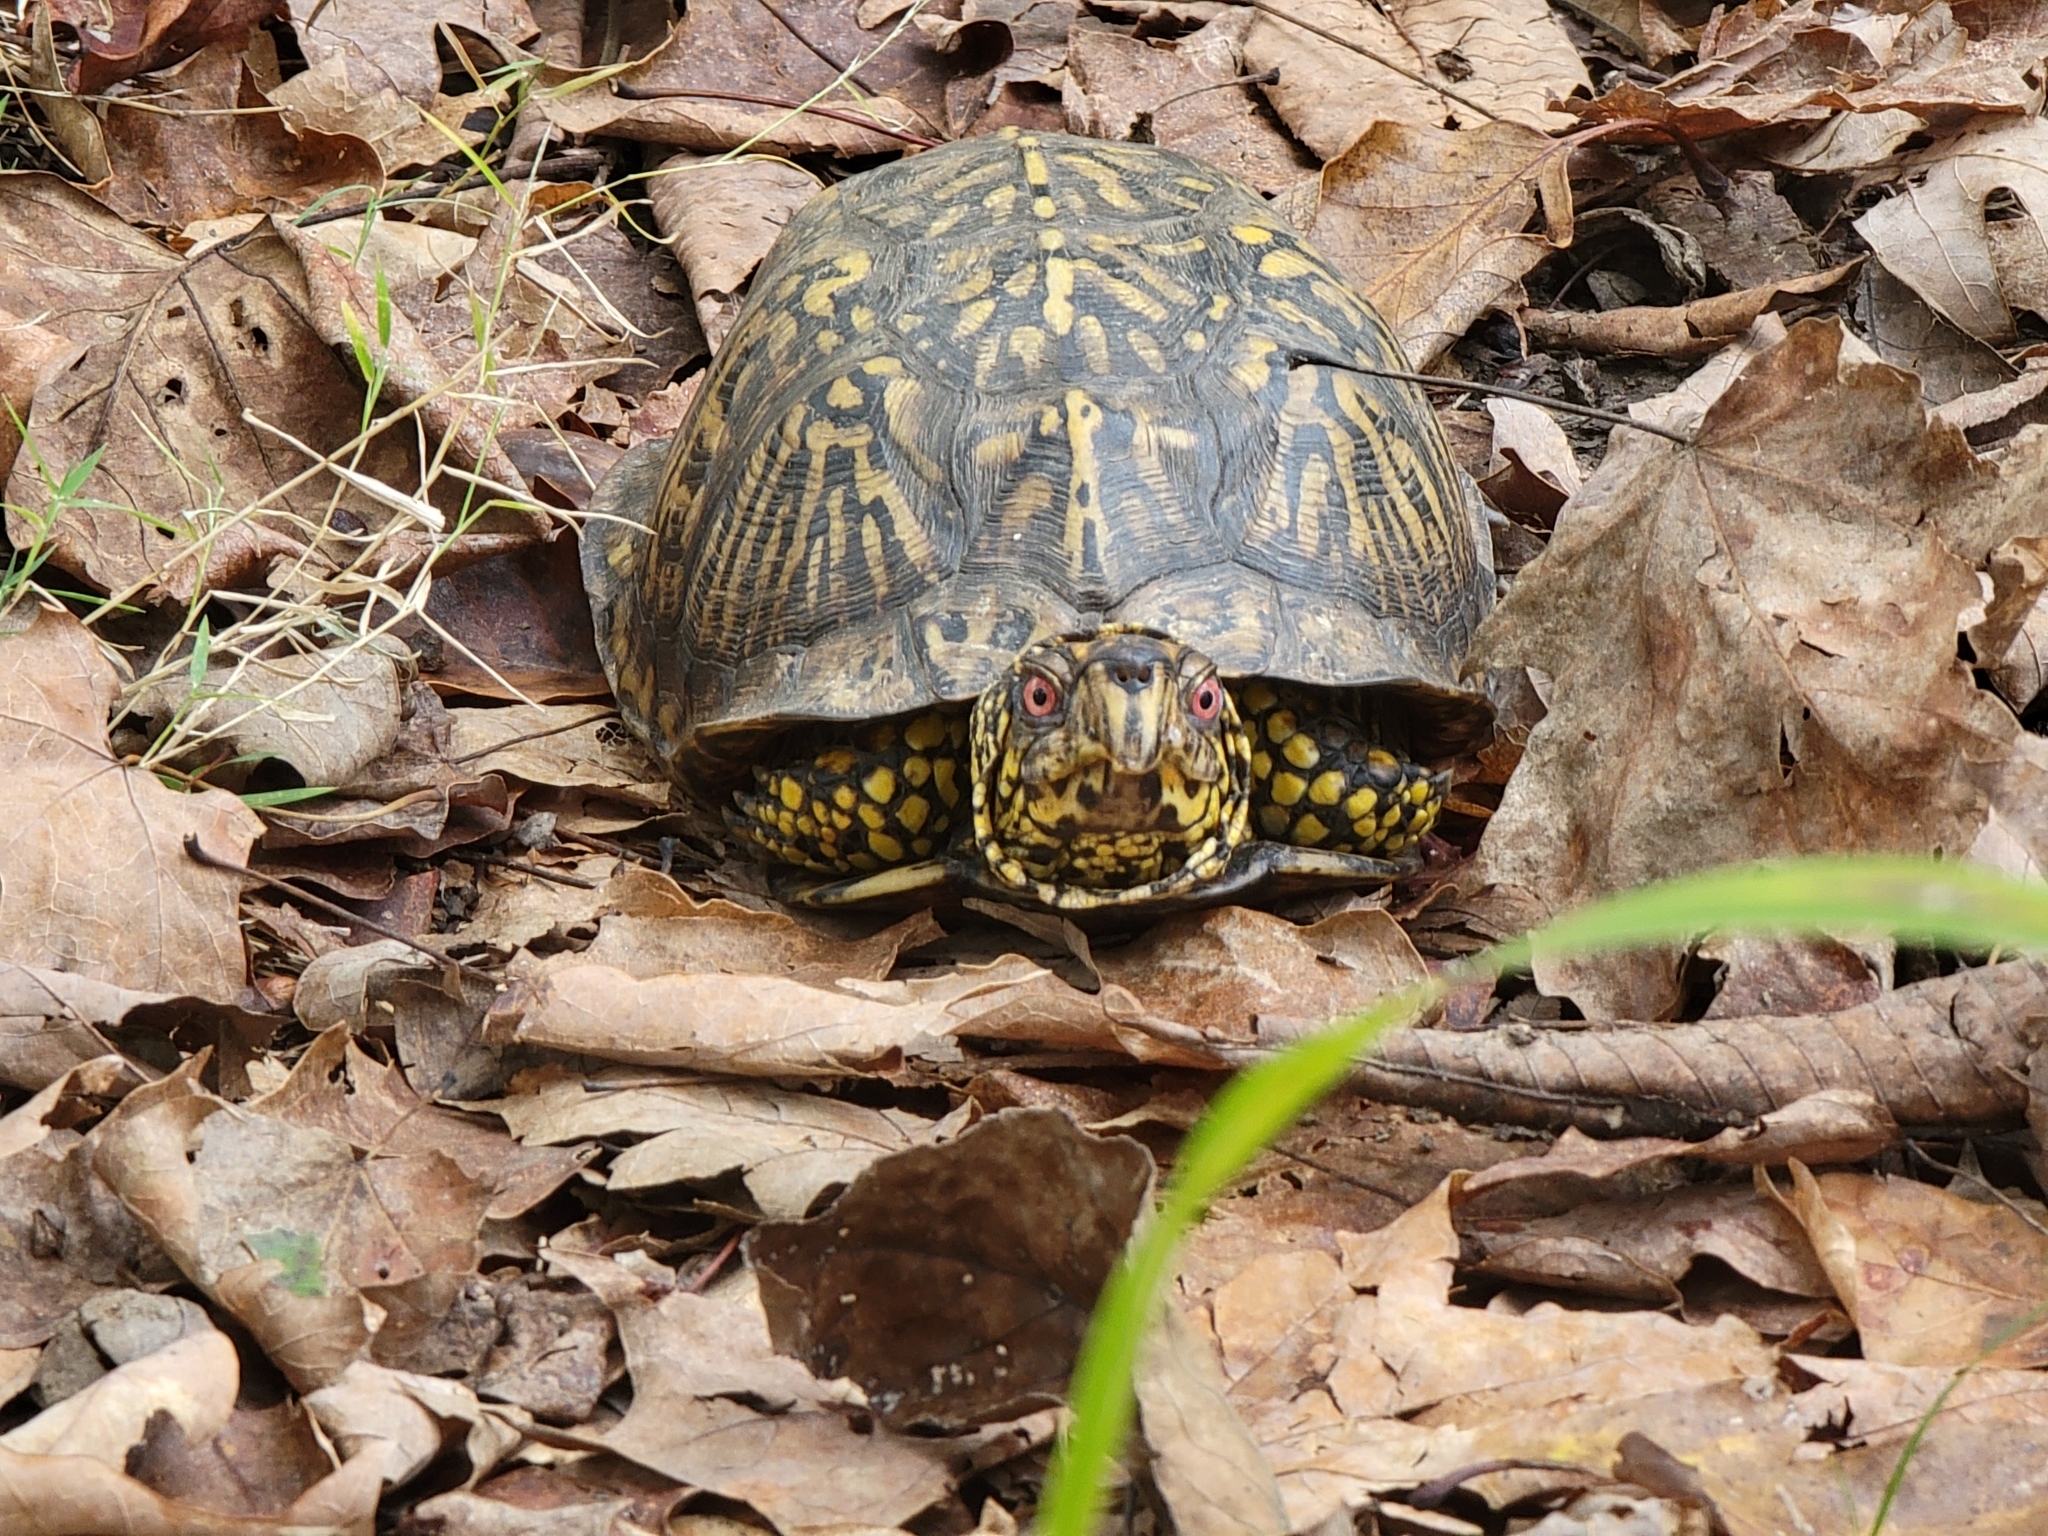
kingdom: Animalia
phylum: Chordata
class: Testudines
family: Emydidae
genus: Terrapene
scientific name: Terrapene carolina
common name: Common box turtle
